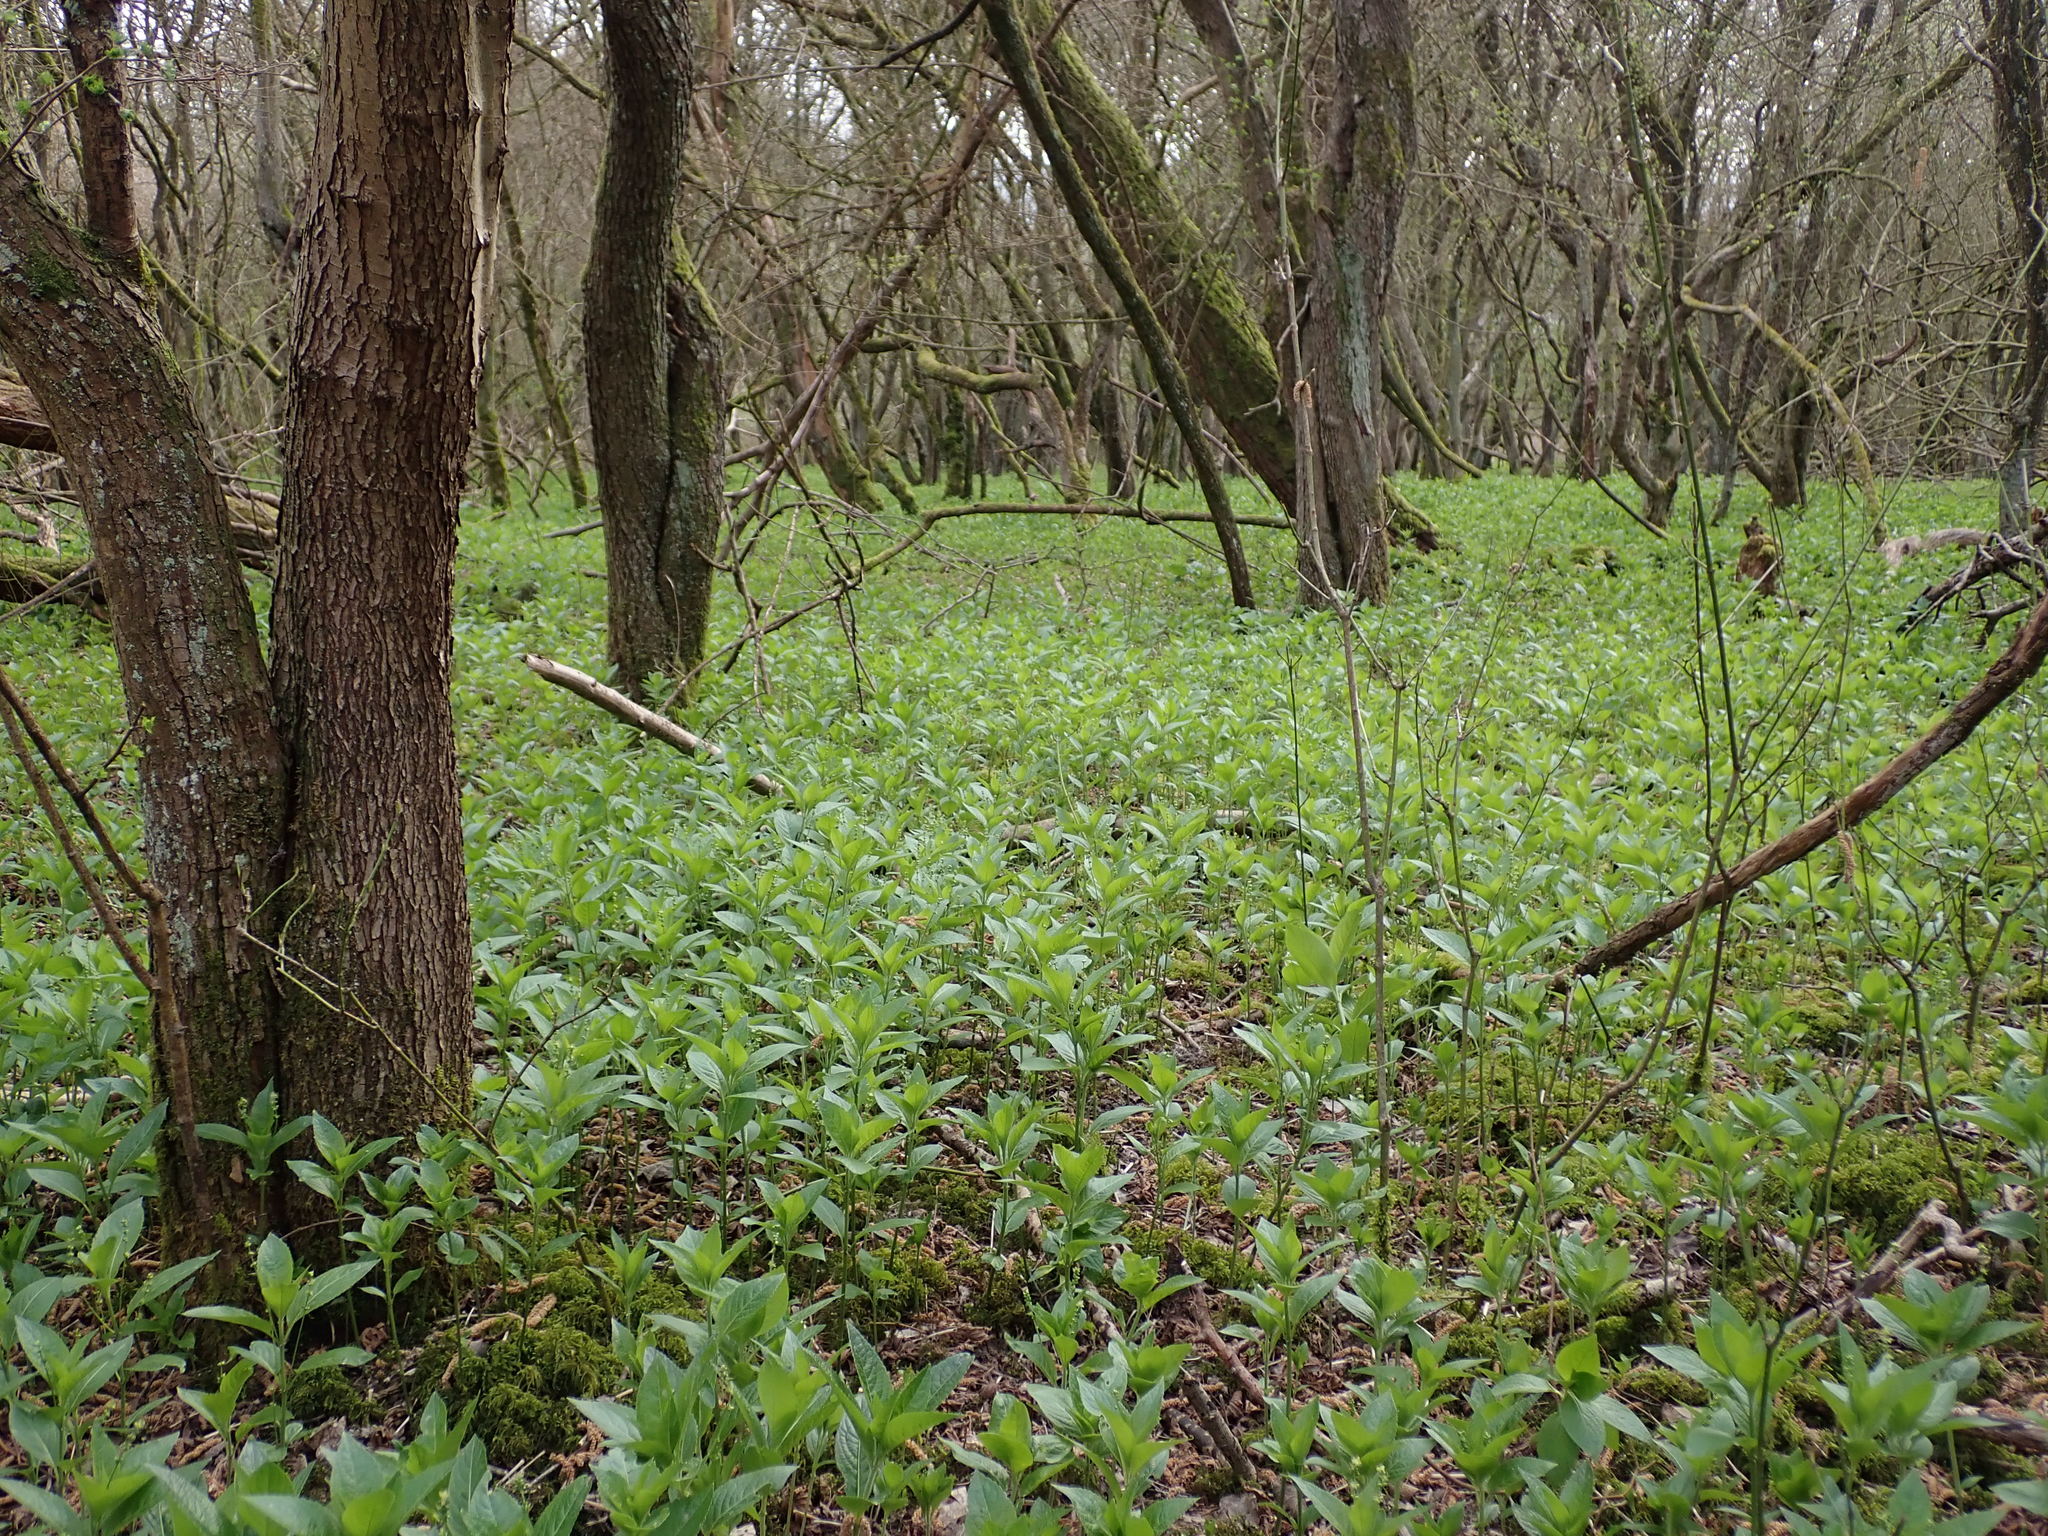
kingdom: Plantae
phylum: Tracheophyta
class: Magnoliopsida
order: Malpighiales
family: Euphorbiaceae
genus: Mercurialis
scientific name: Mercurialis perennis
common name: Dog mercury
